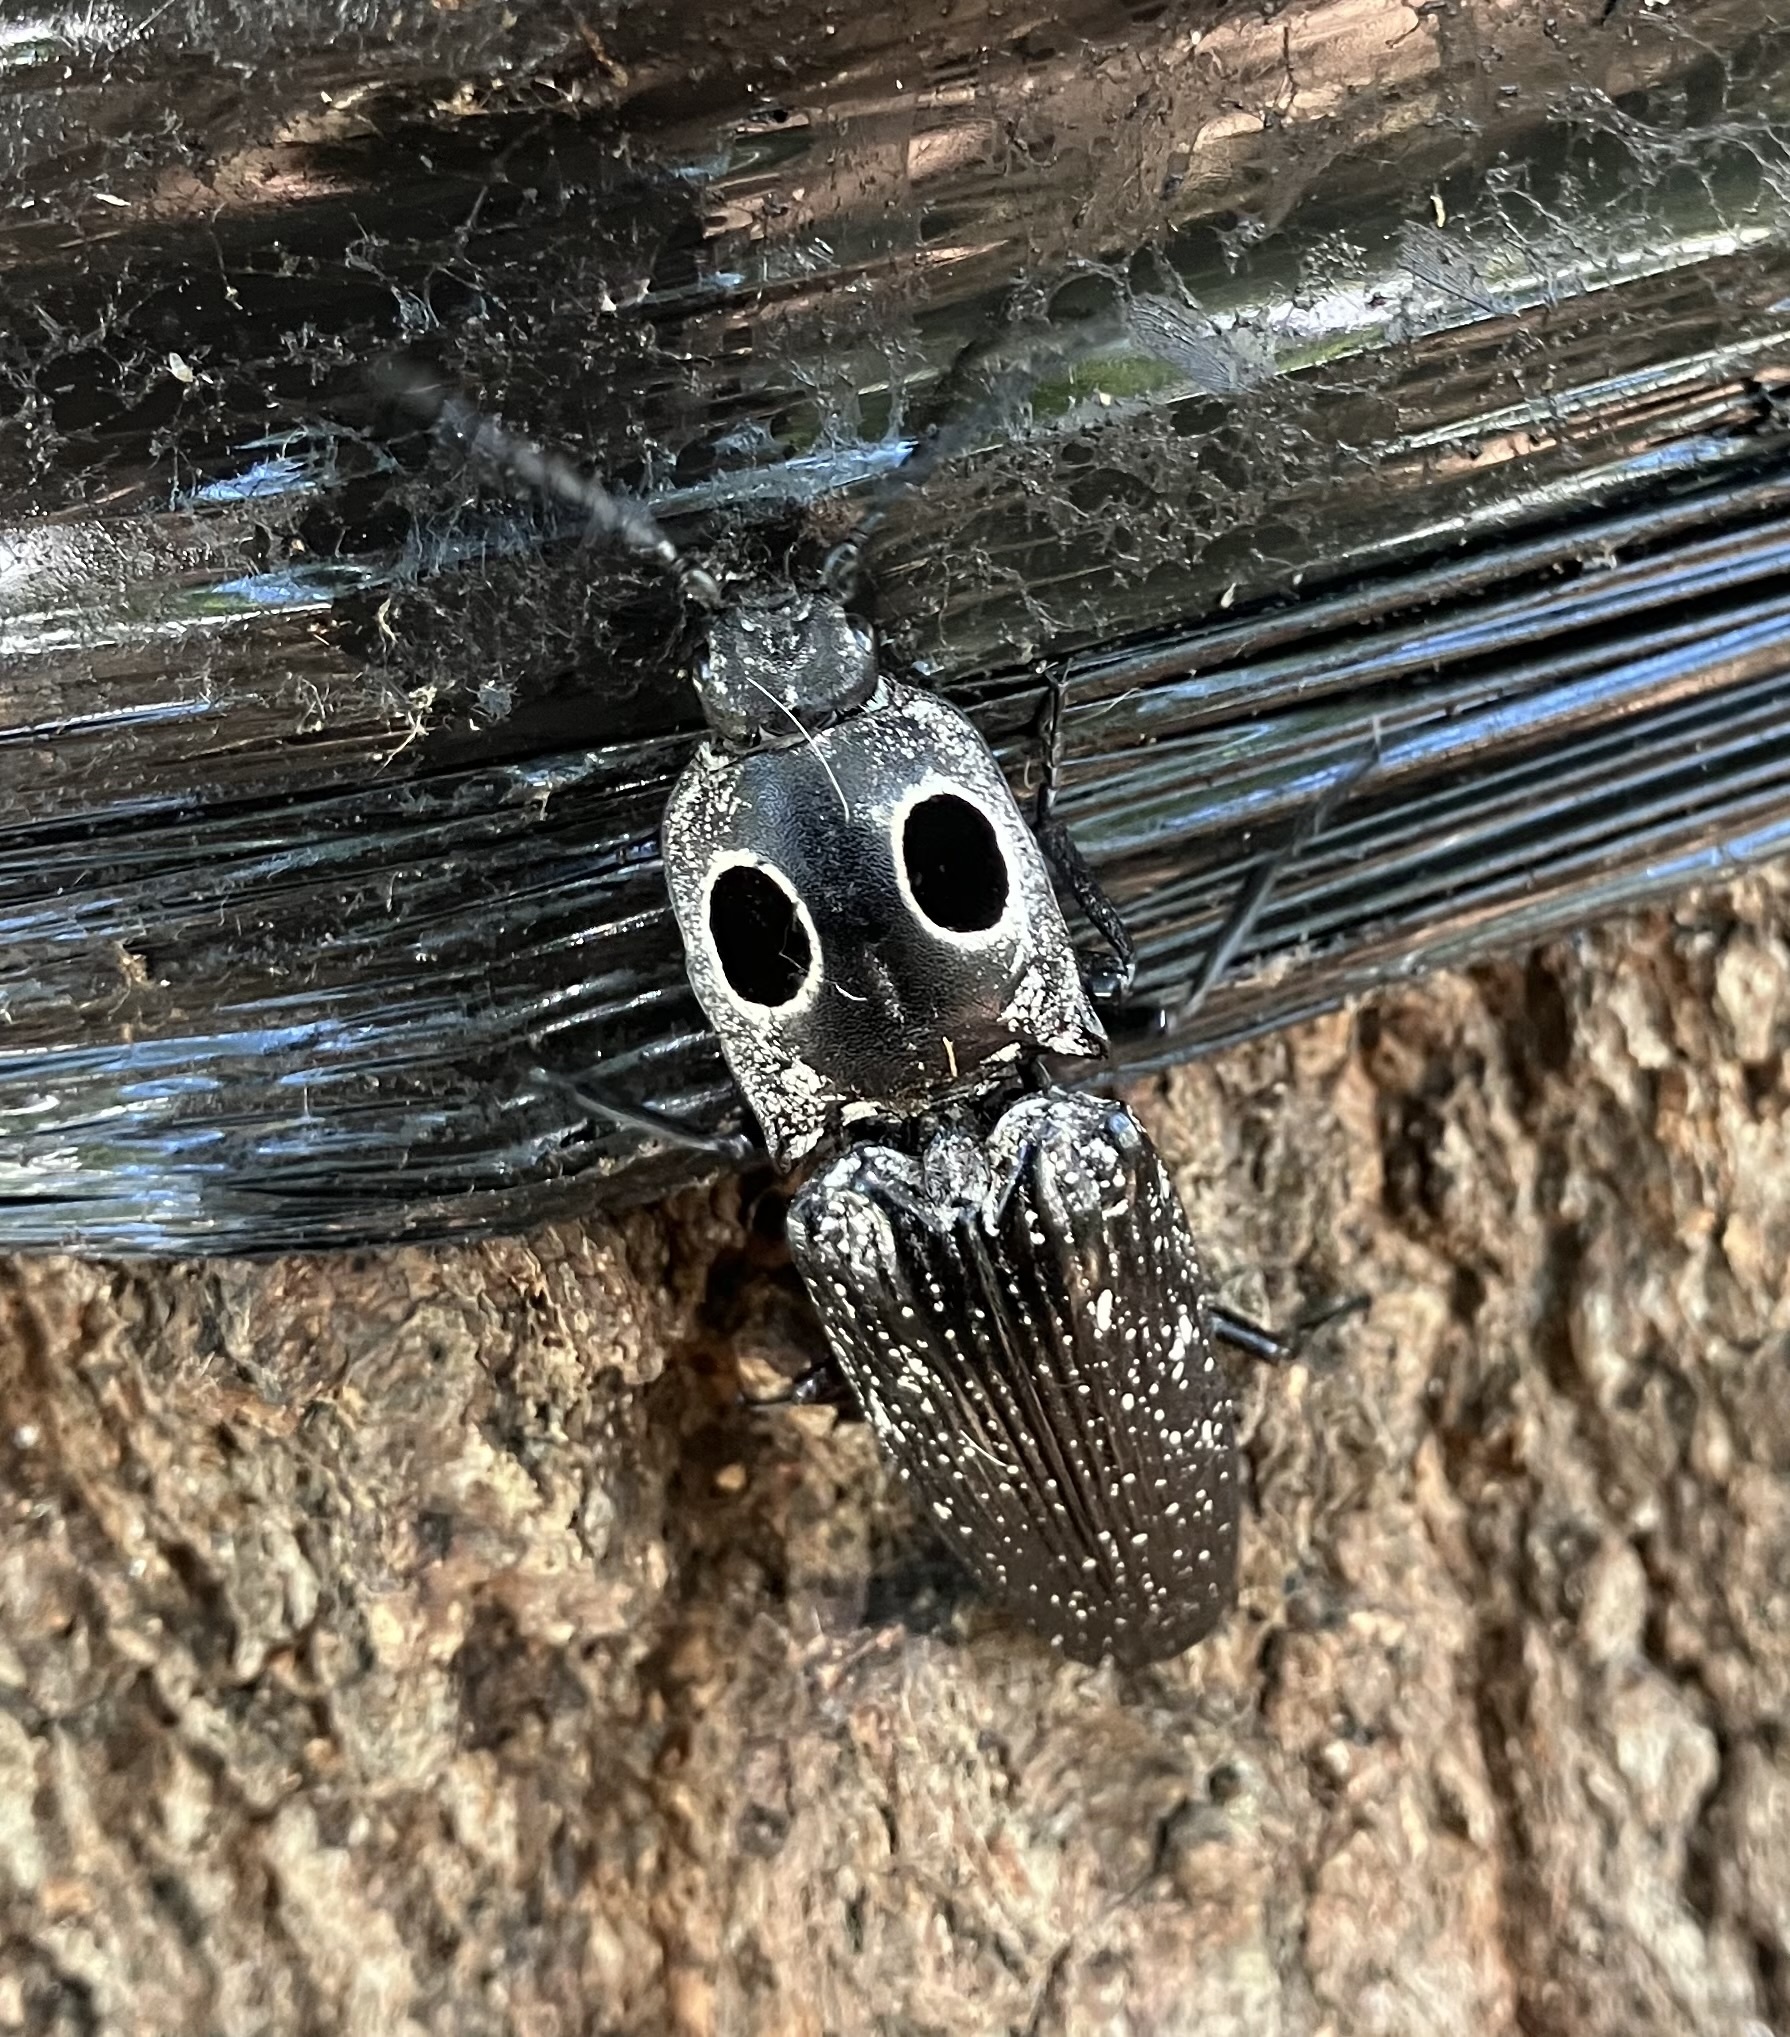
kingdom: Animalia
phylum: Arthropoda
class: Insecta
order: Coleoptera
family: Elateridae
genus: Alaus
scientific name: Alaus oculatus
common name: Eastern eyed click beetle
